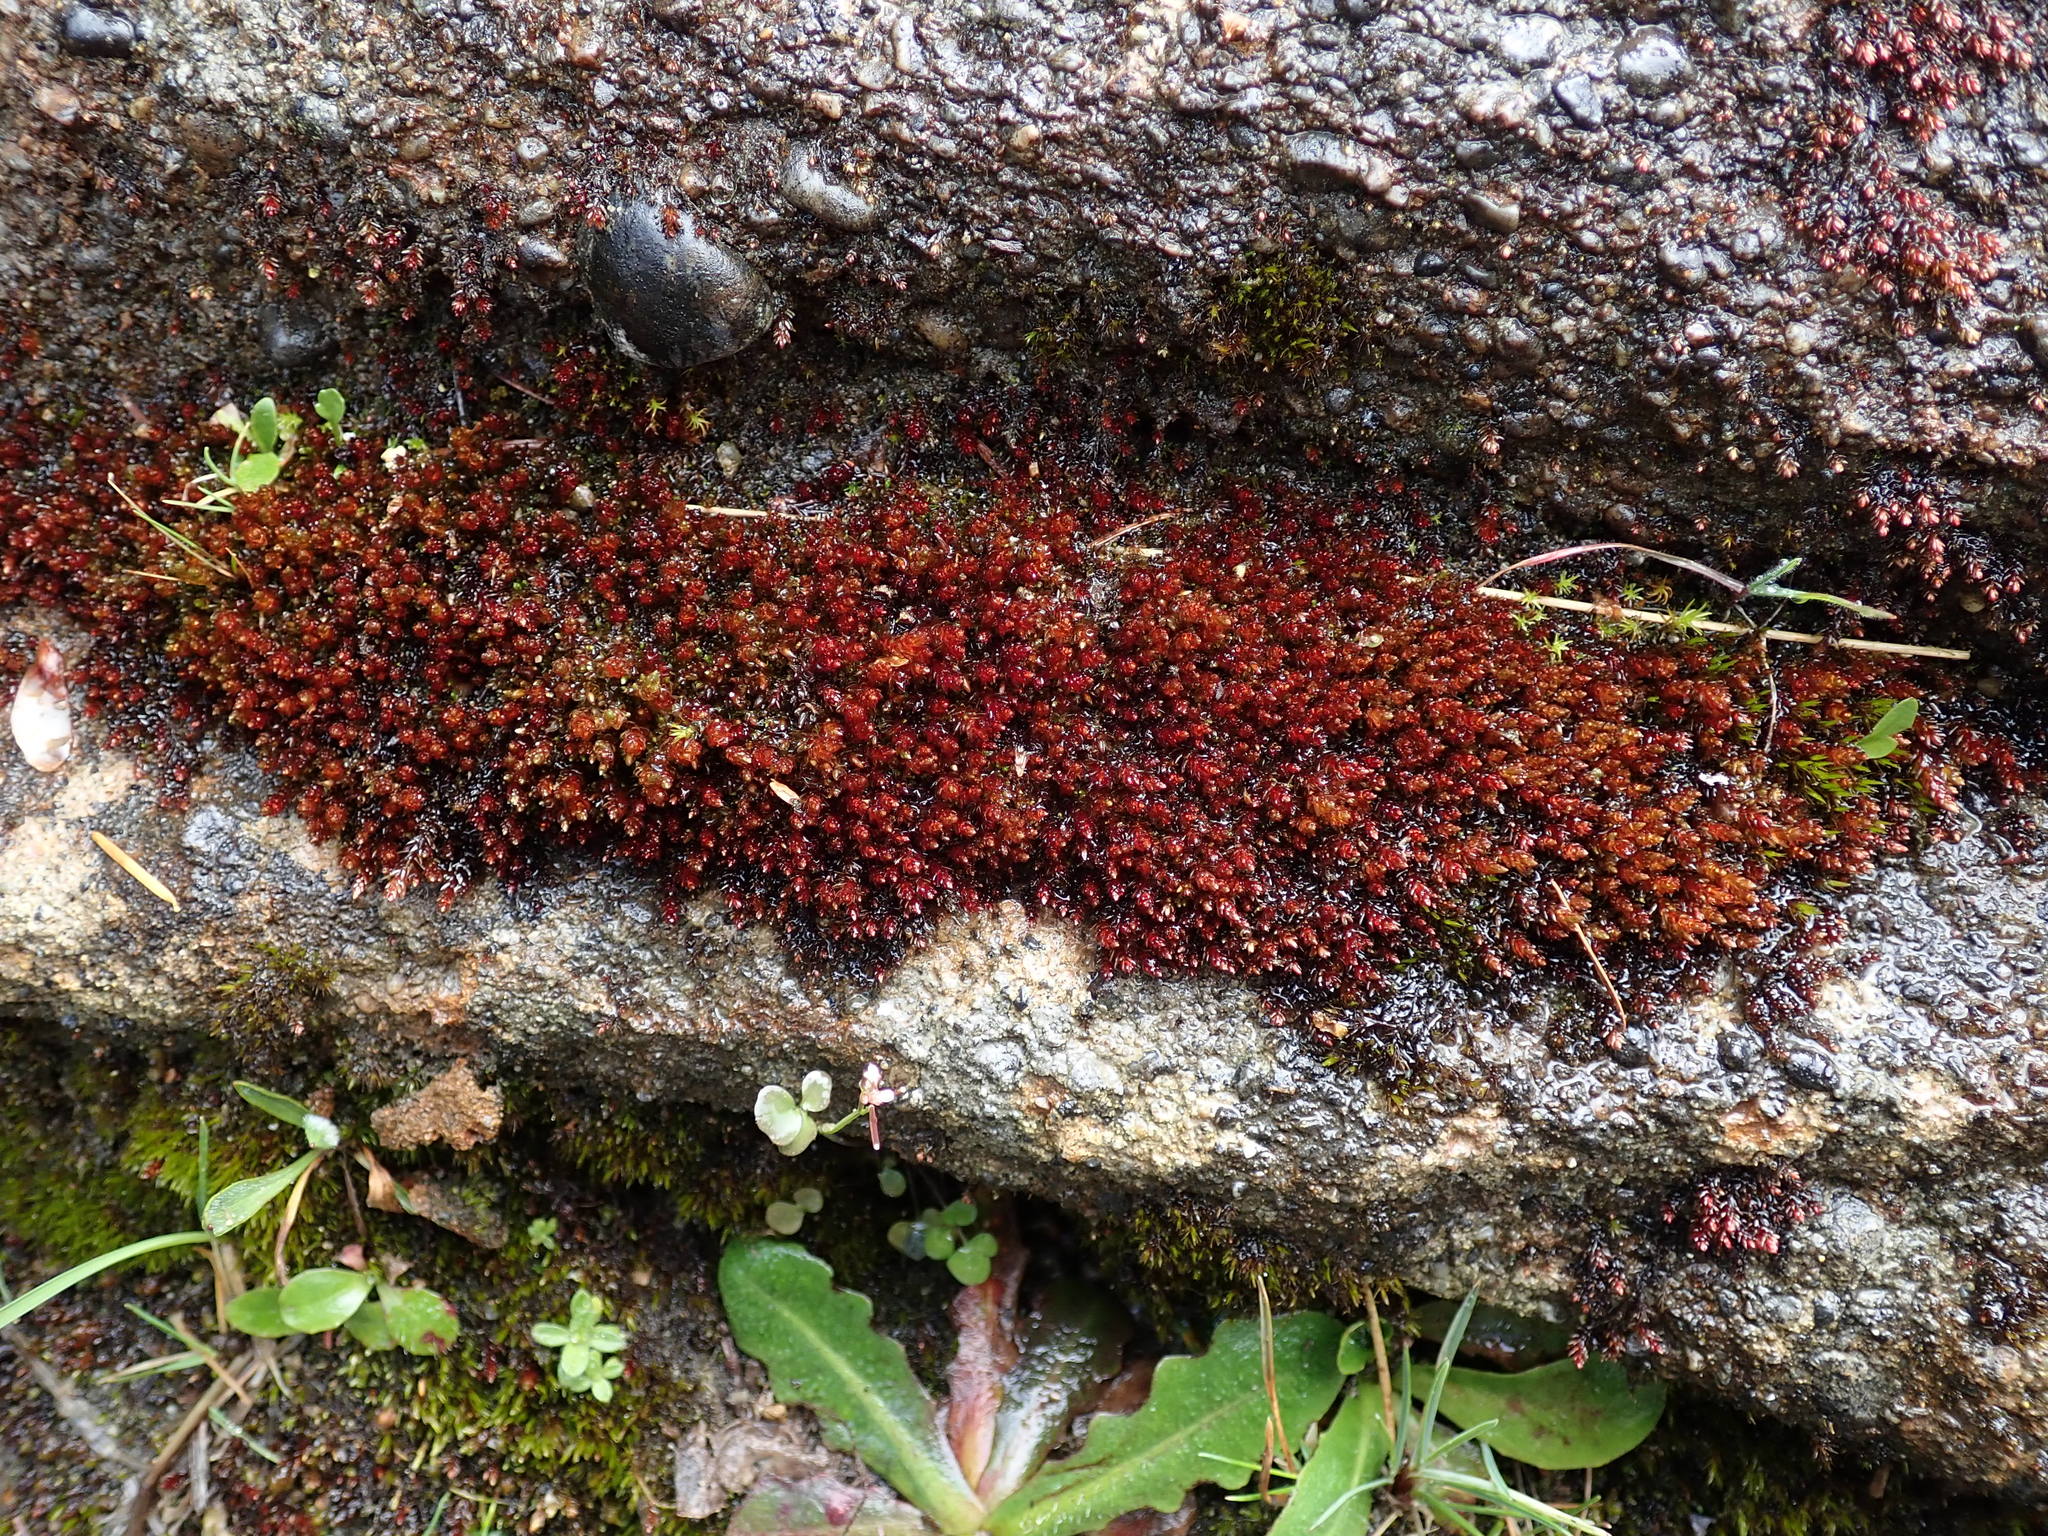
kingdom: Plantae
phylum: Bryophyta
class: Bryopsida
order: Bryales
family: Bryaceae
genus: Imbribryum
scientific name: Imbribryum miniatum
